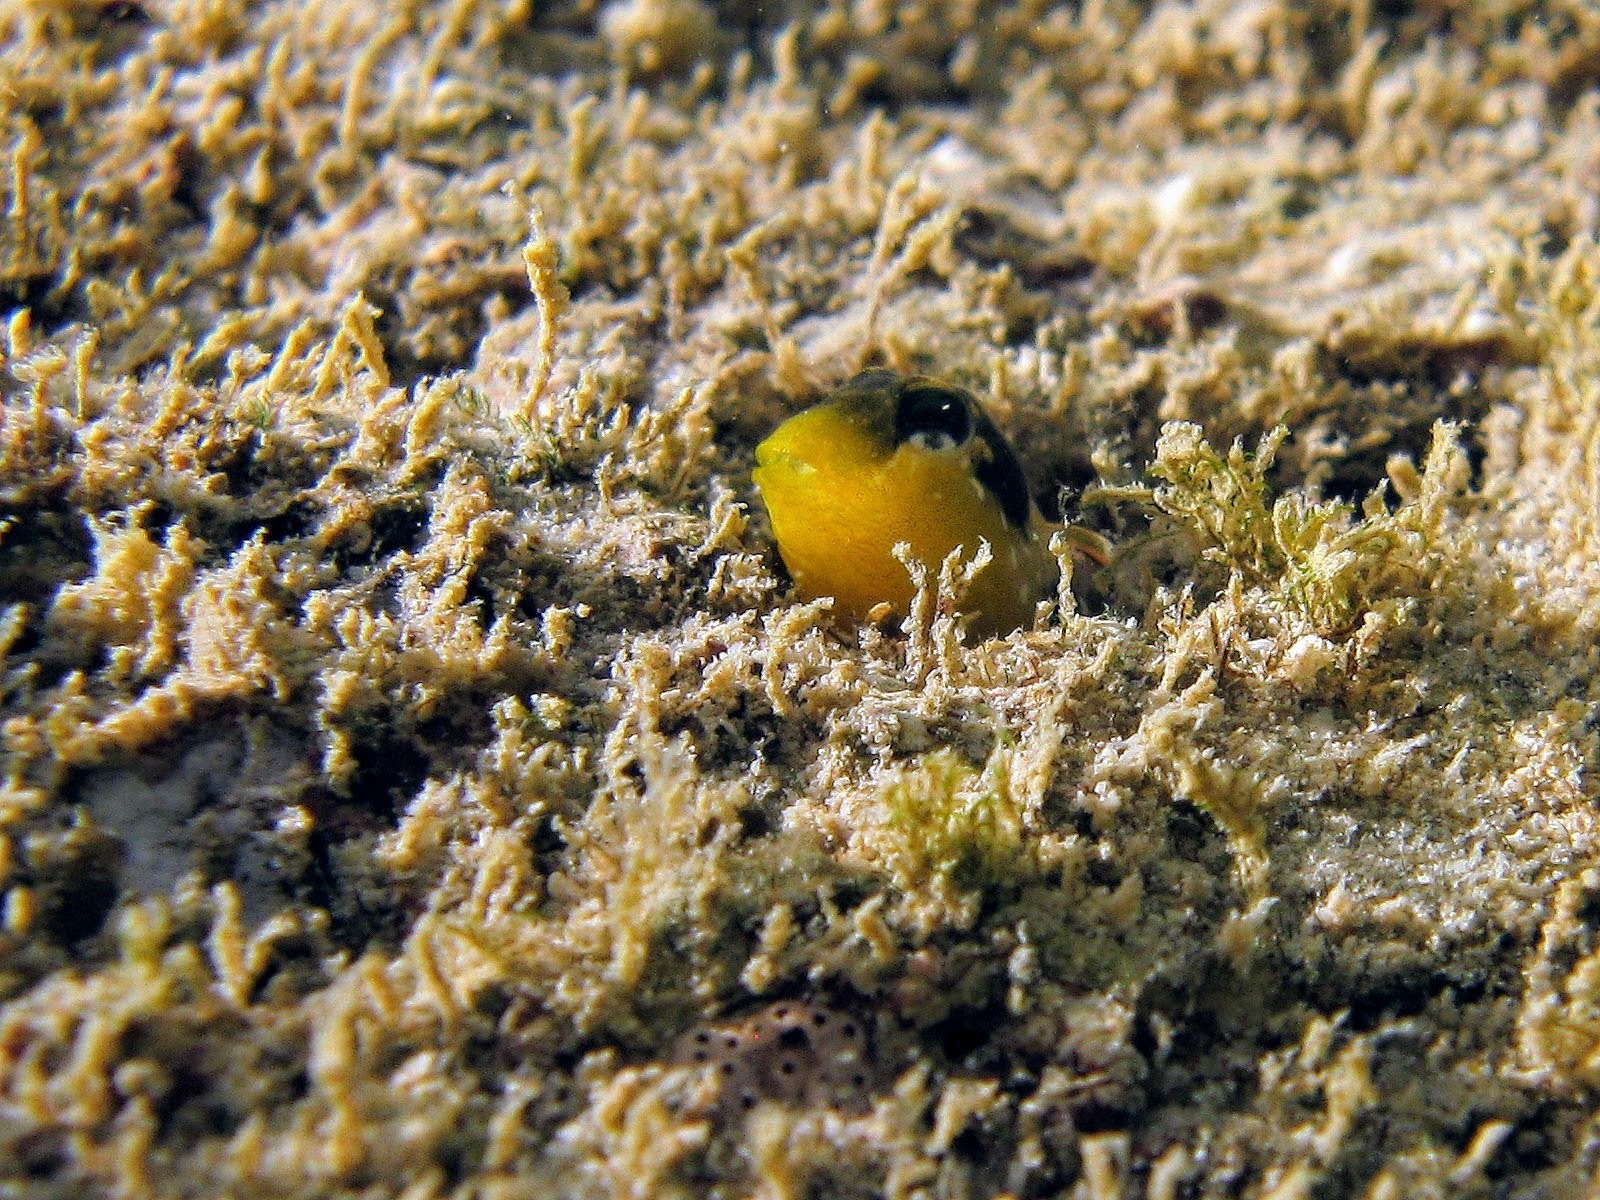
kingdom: Animalia
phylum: Chordata
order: Perciformes
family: Blenniidae
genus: Microlipophrys
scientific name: Microlipophrys dalmatinus
